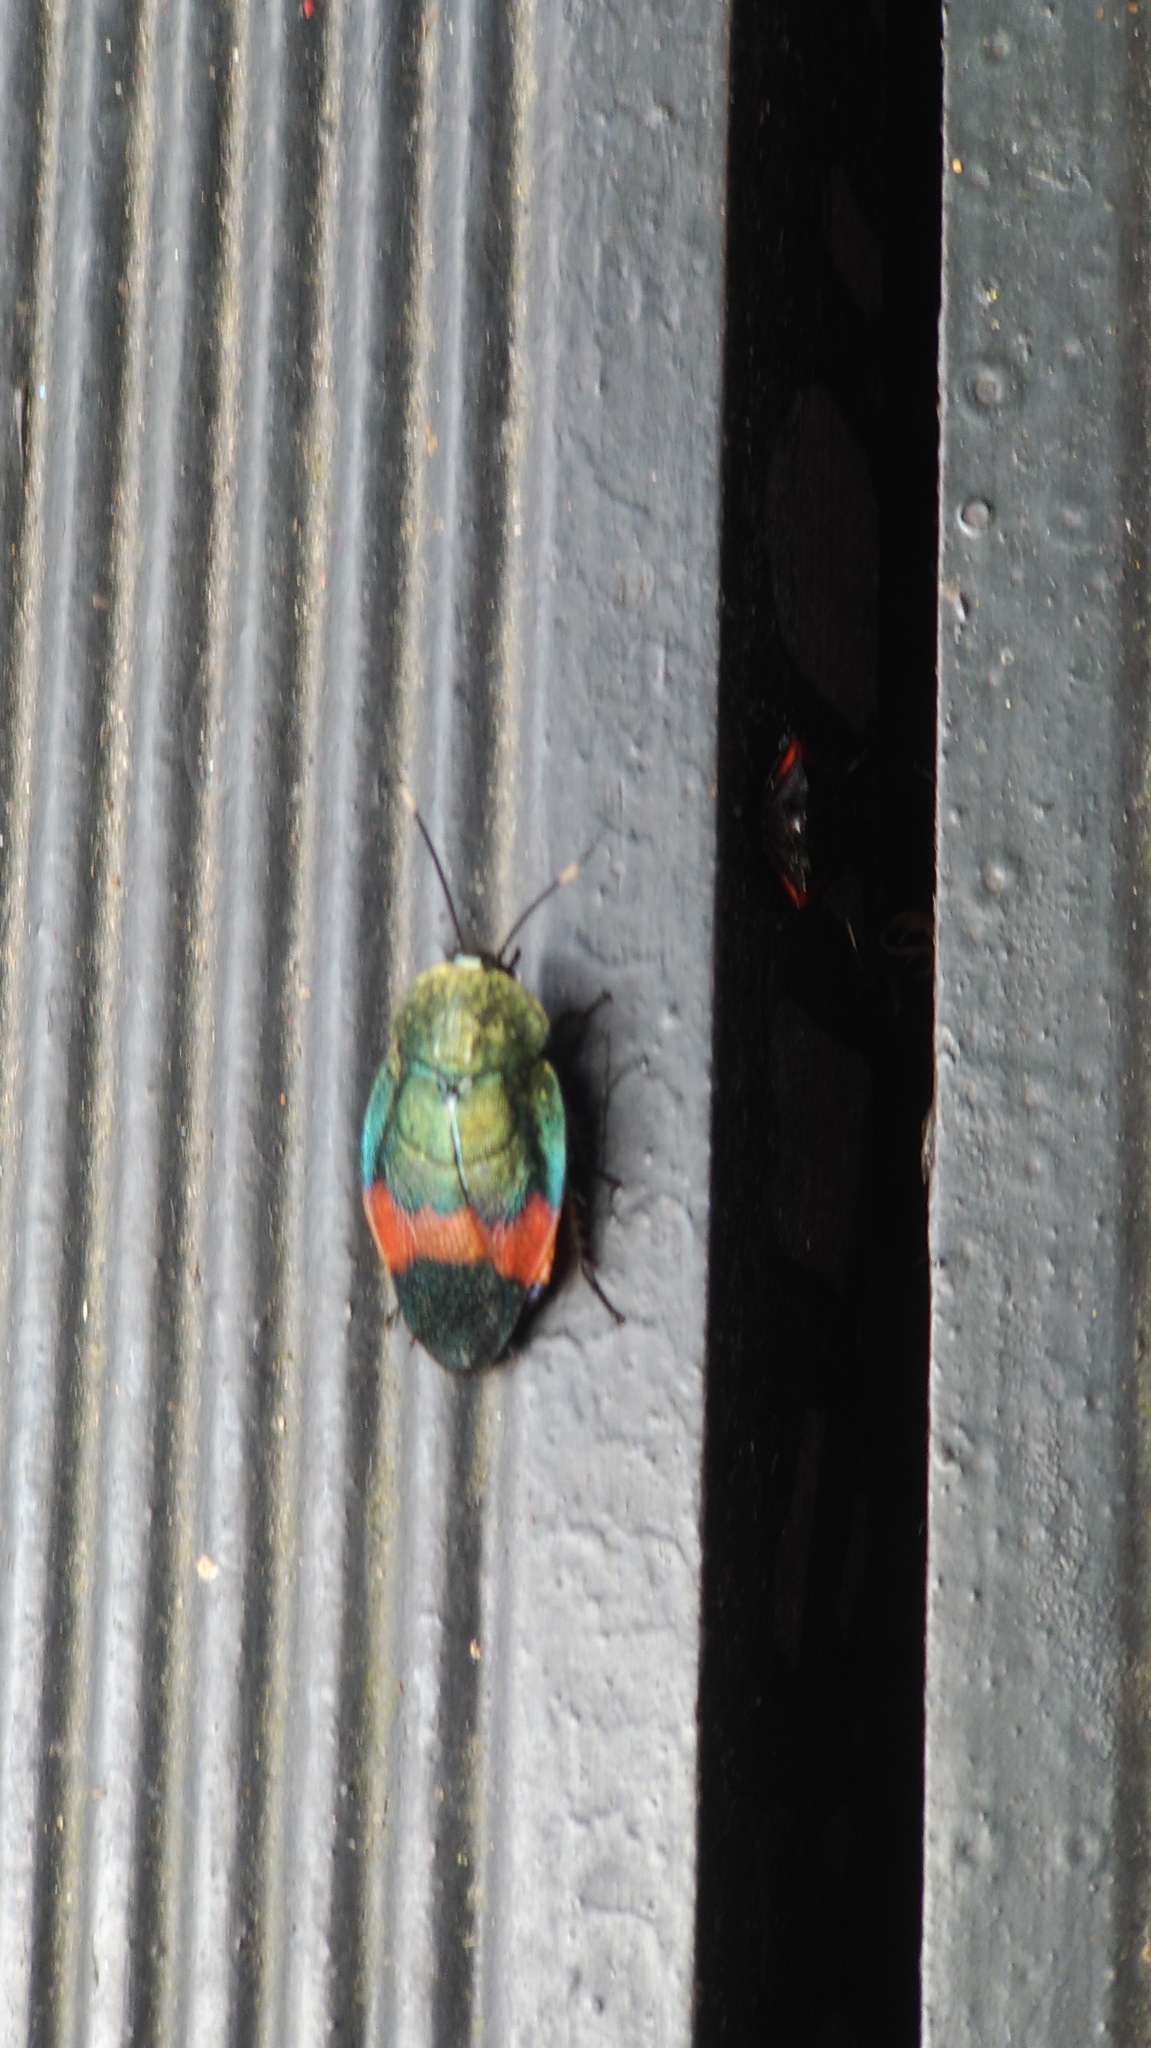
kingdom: Animalia
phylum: Arthropoda
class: Insecta
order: Blattodea
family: Corydiidae
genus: Eucorydia
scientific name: Eucorydia aenea
